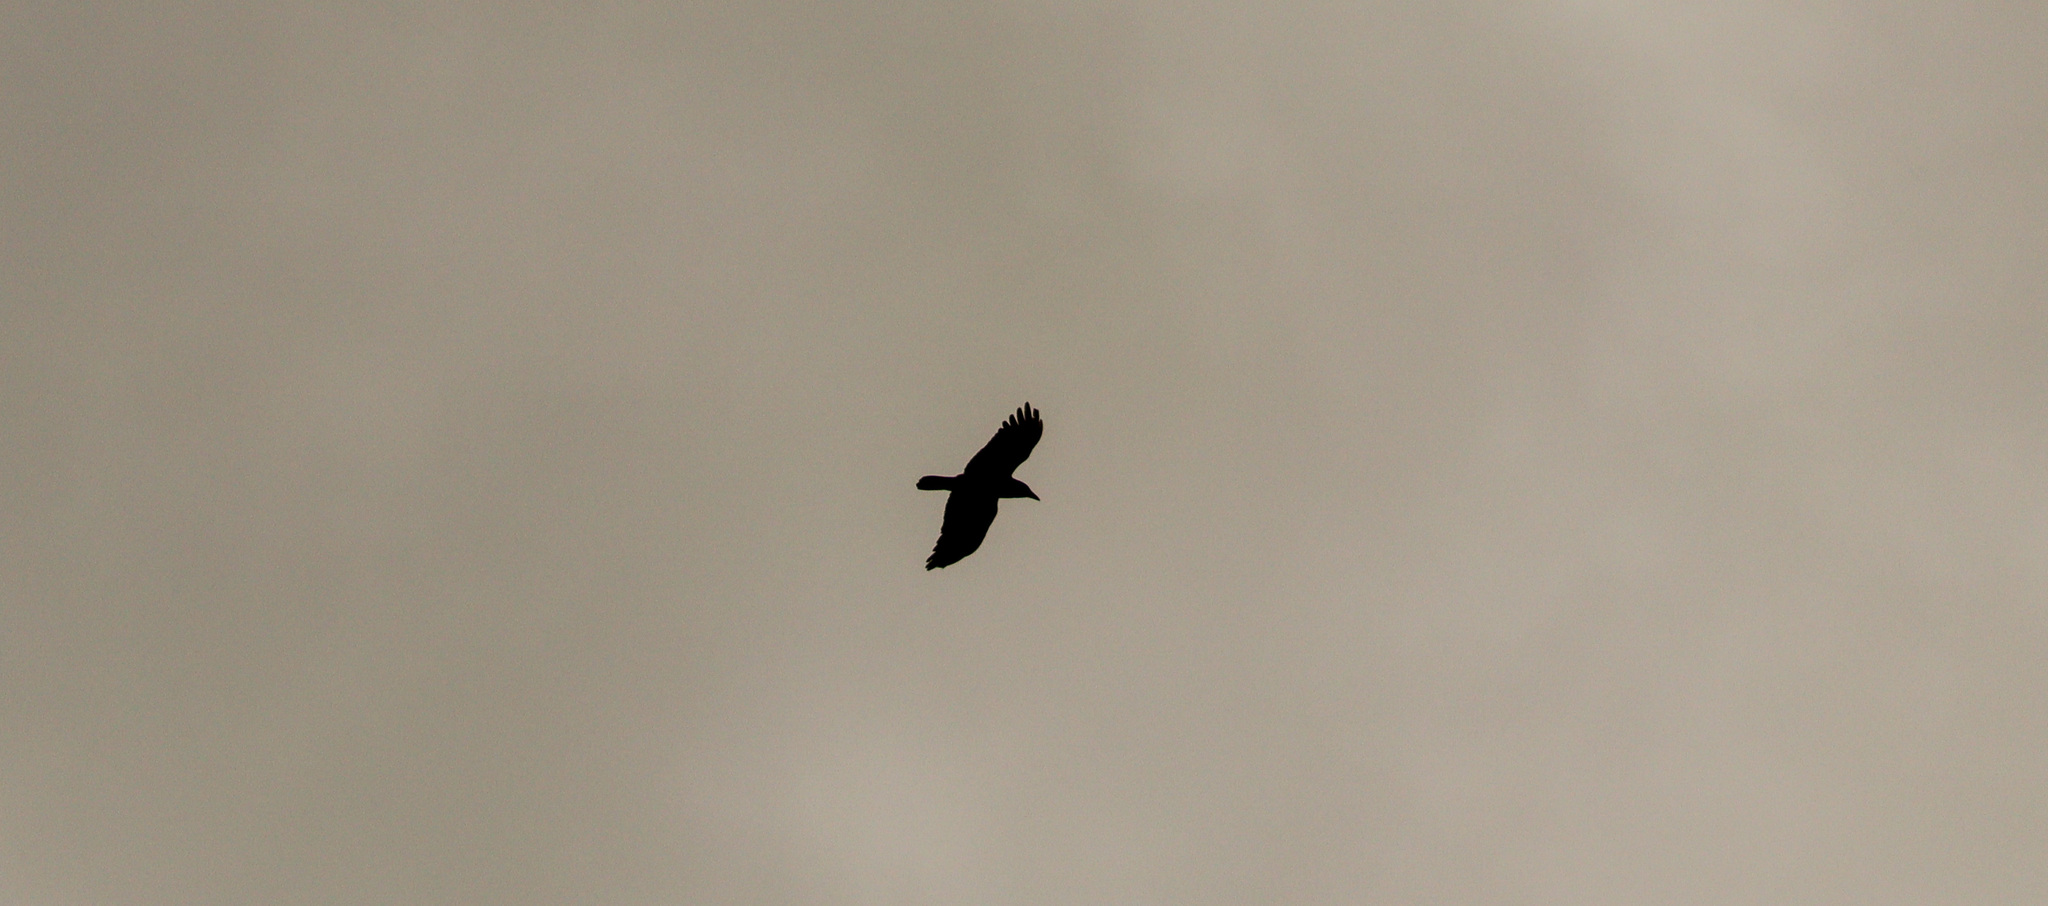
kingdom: Animalia
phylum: Chordata
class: Aves
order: Passeriformes
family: Corvidae
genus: Corvus
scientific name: Corvus brachyrhynchos
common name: American crow
